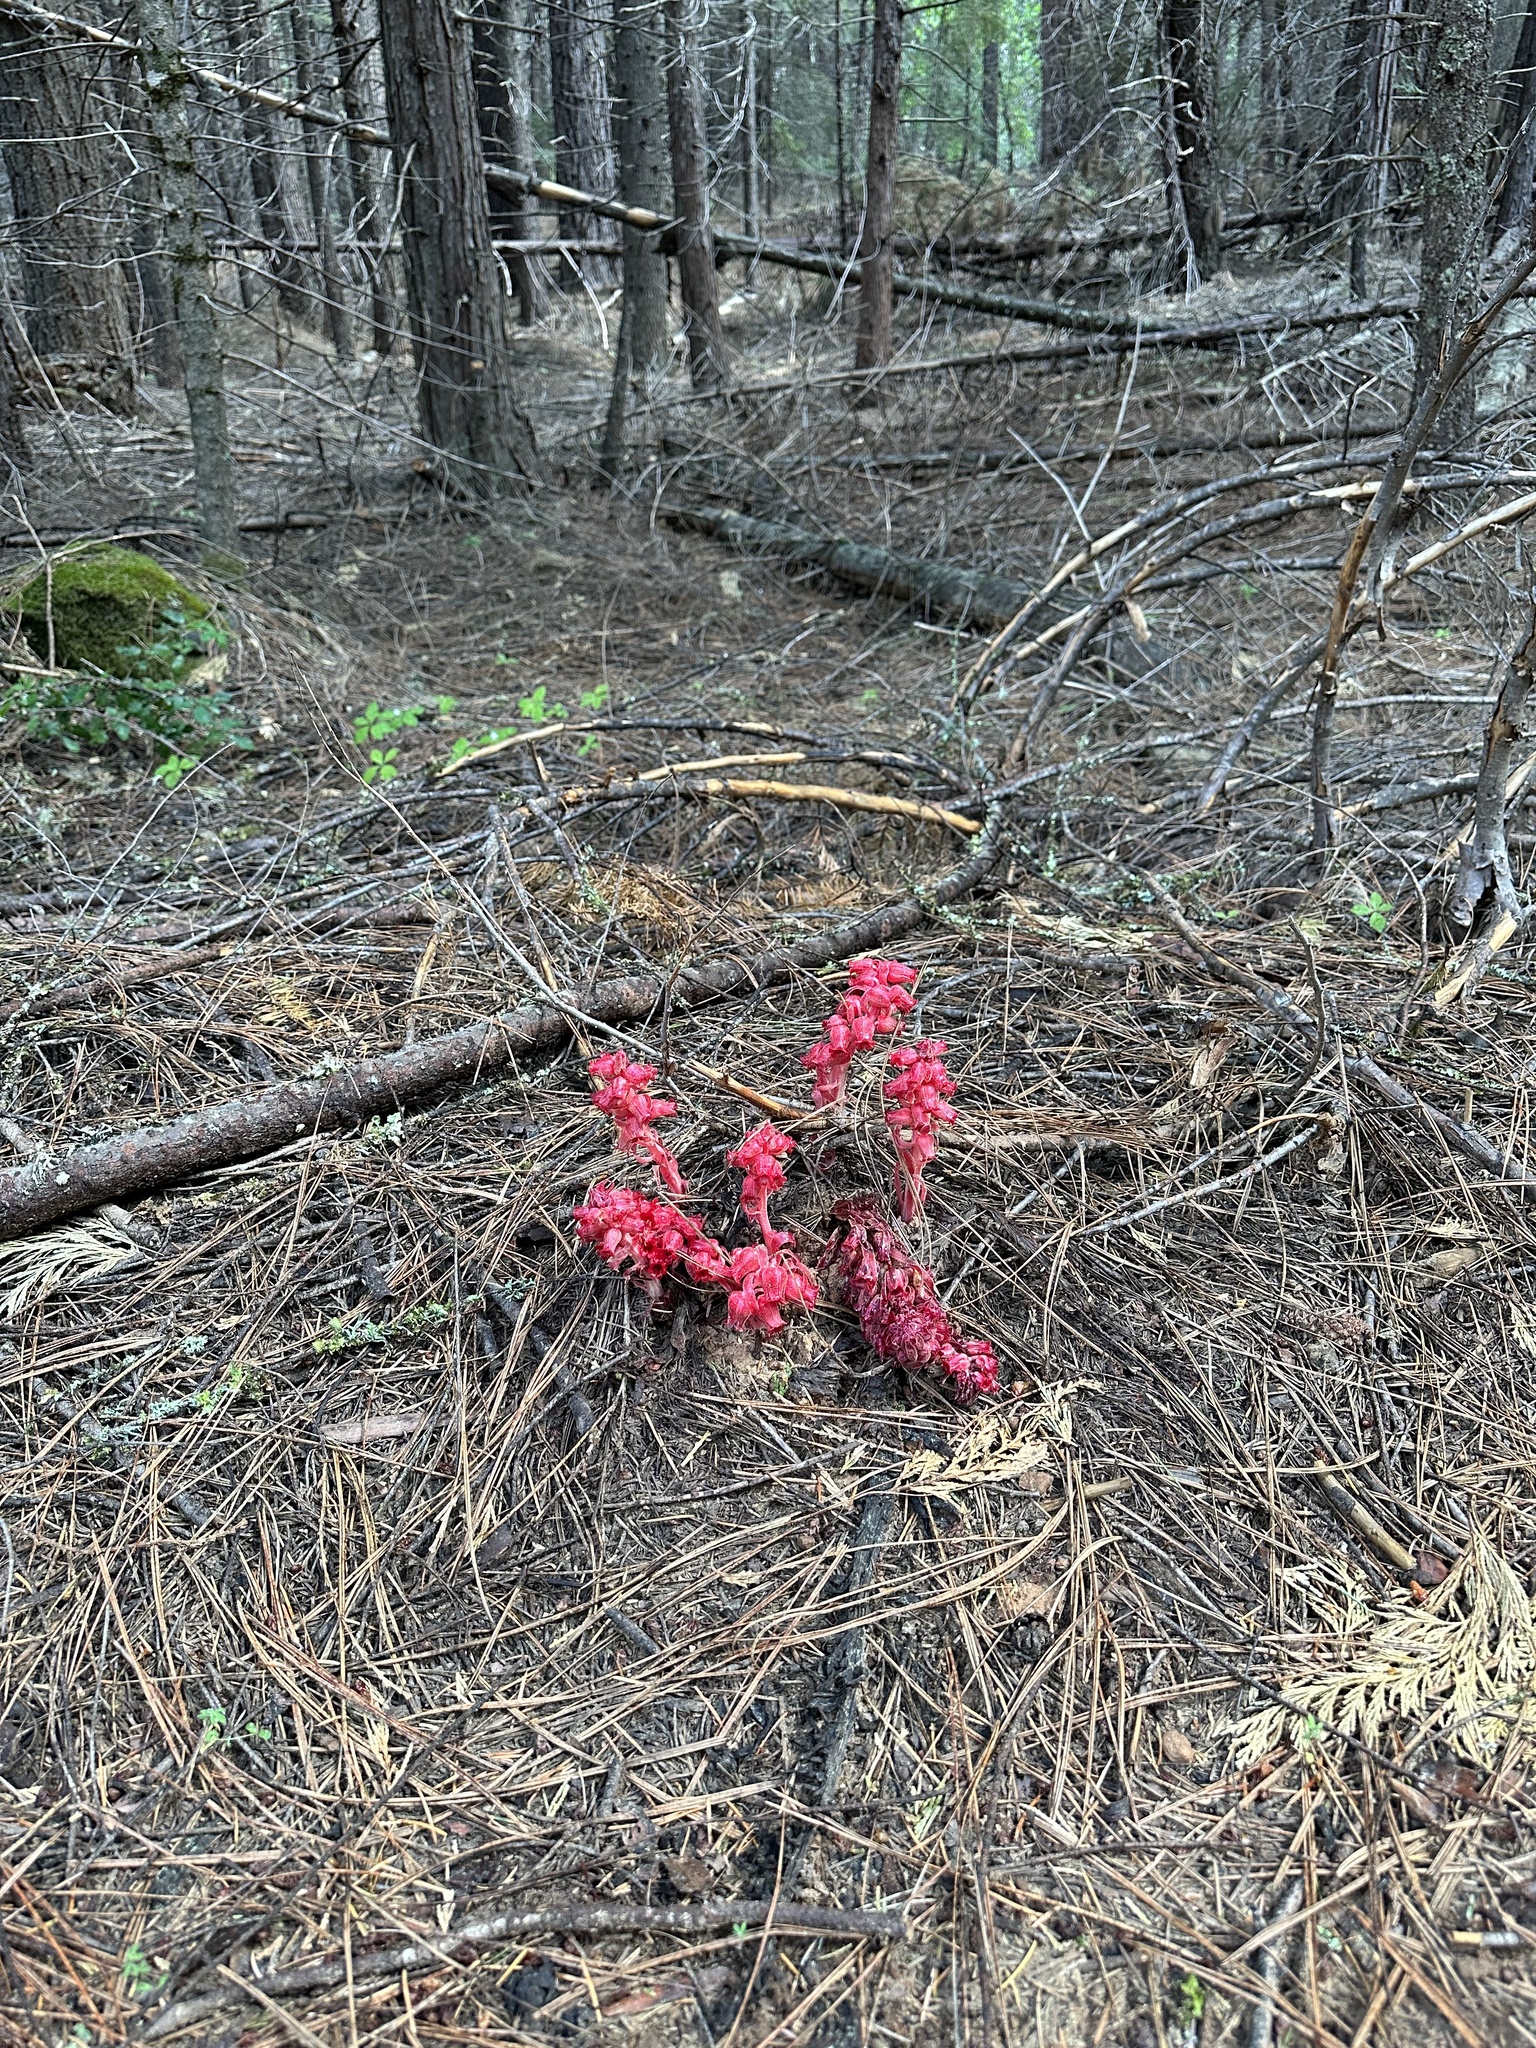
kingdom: Plantae
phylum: Tracheophyta
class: Magnoliopsida
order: Ericales
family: Ericaceae
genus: Sarcodes
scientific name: Sarcodes sanguinea
